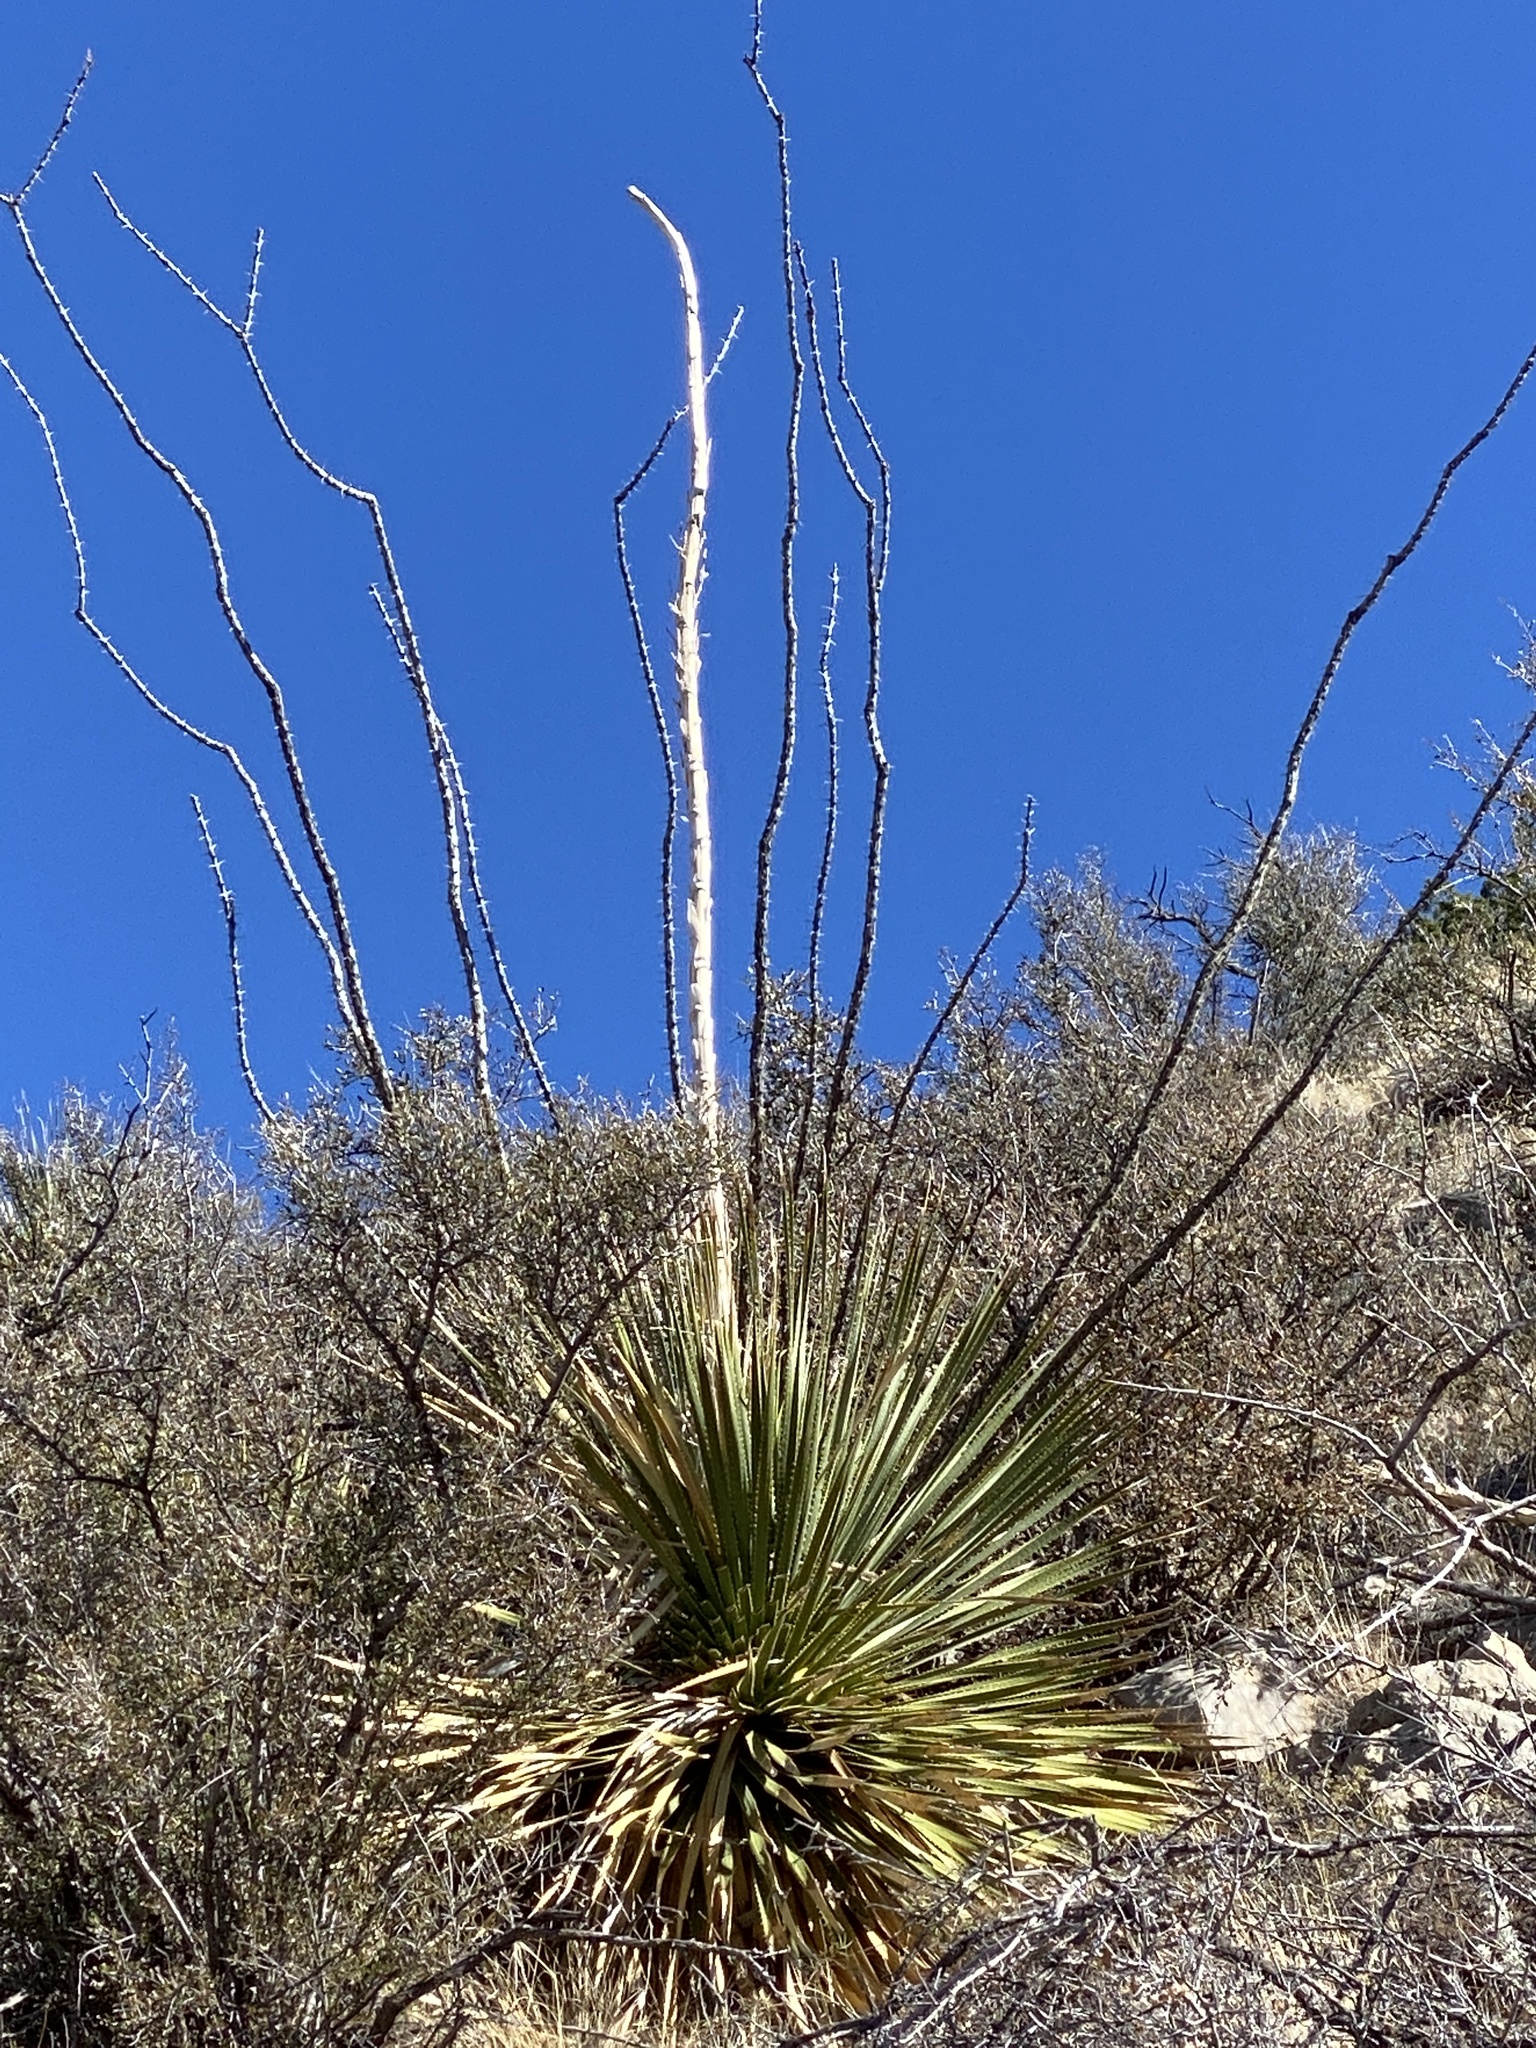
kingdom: Plantae
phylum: Tracheophyta
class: Liliopsida
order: Asparagales
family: Asparagaceae
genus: Dasylirion
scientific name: Dasylirion wheeleri
